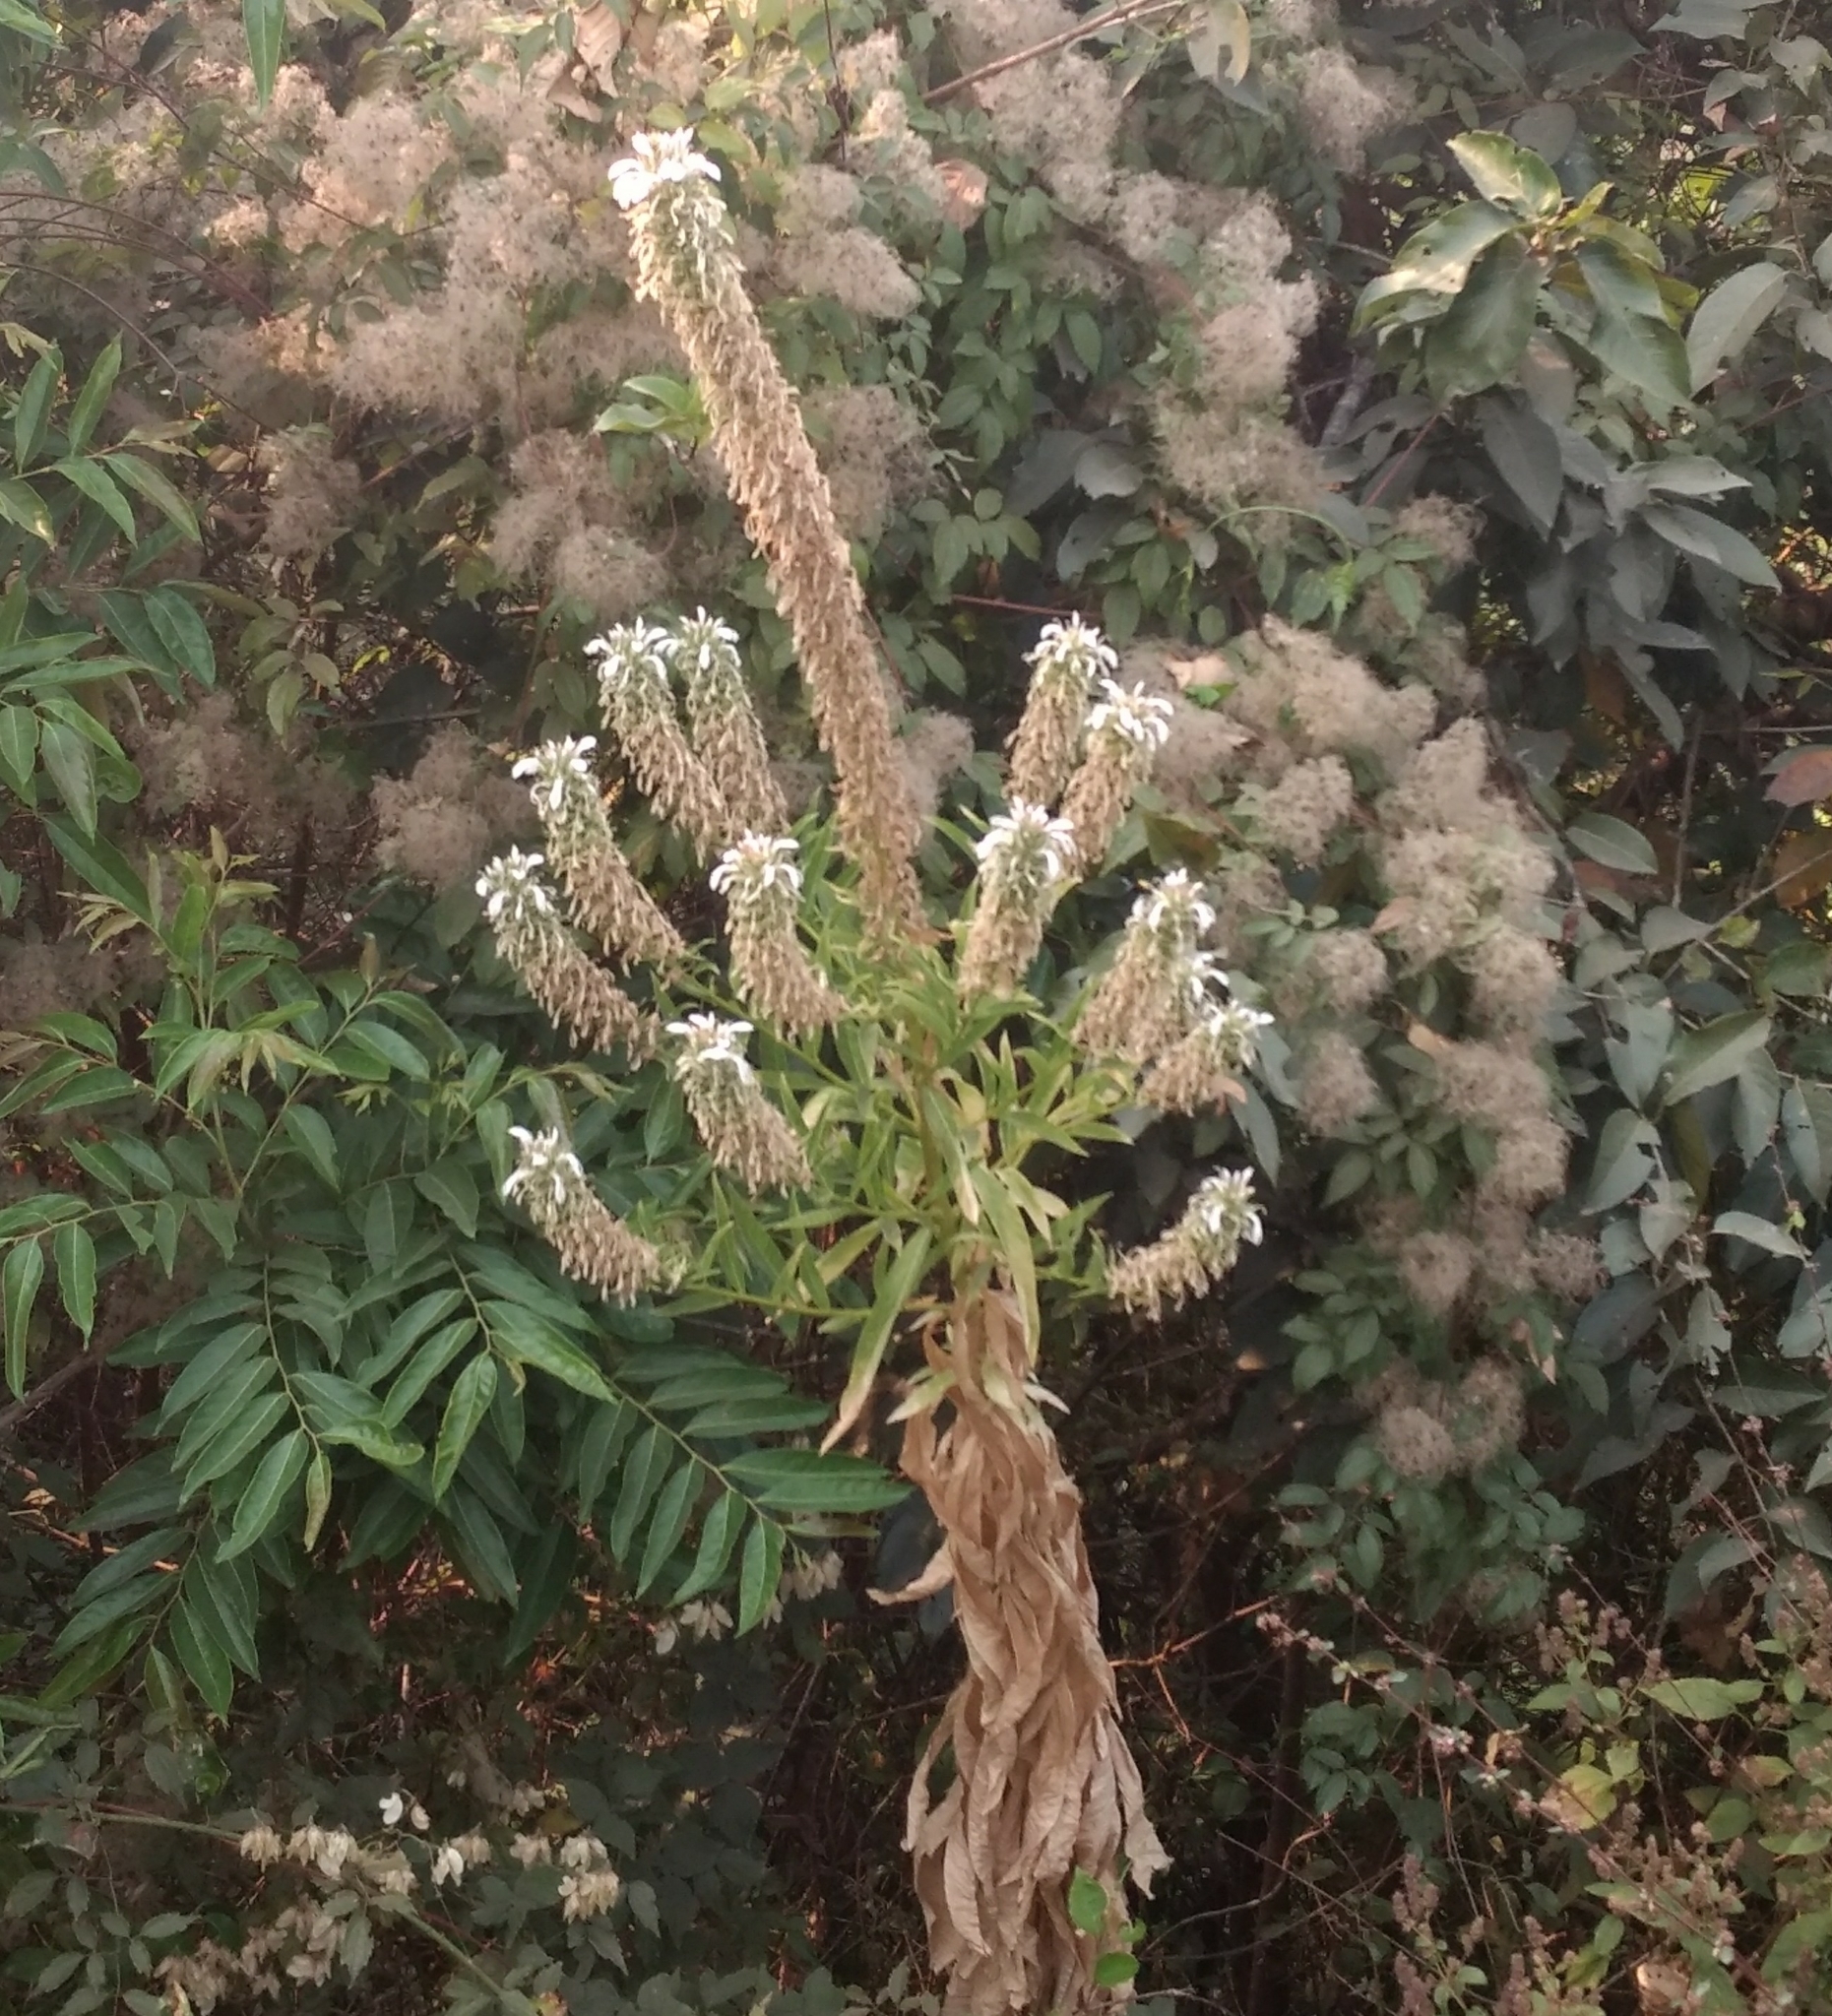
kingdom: Plantae
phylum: Tracheophyta
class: Magnoliopsida
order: Asterales
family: Campanulaceae
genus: Lobelia
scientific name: Lobelia nicotianifolia
